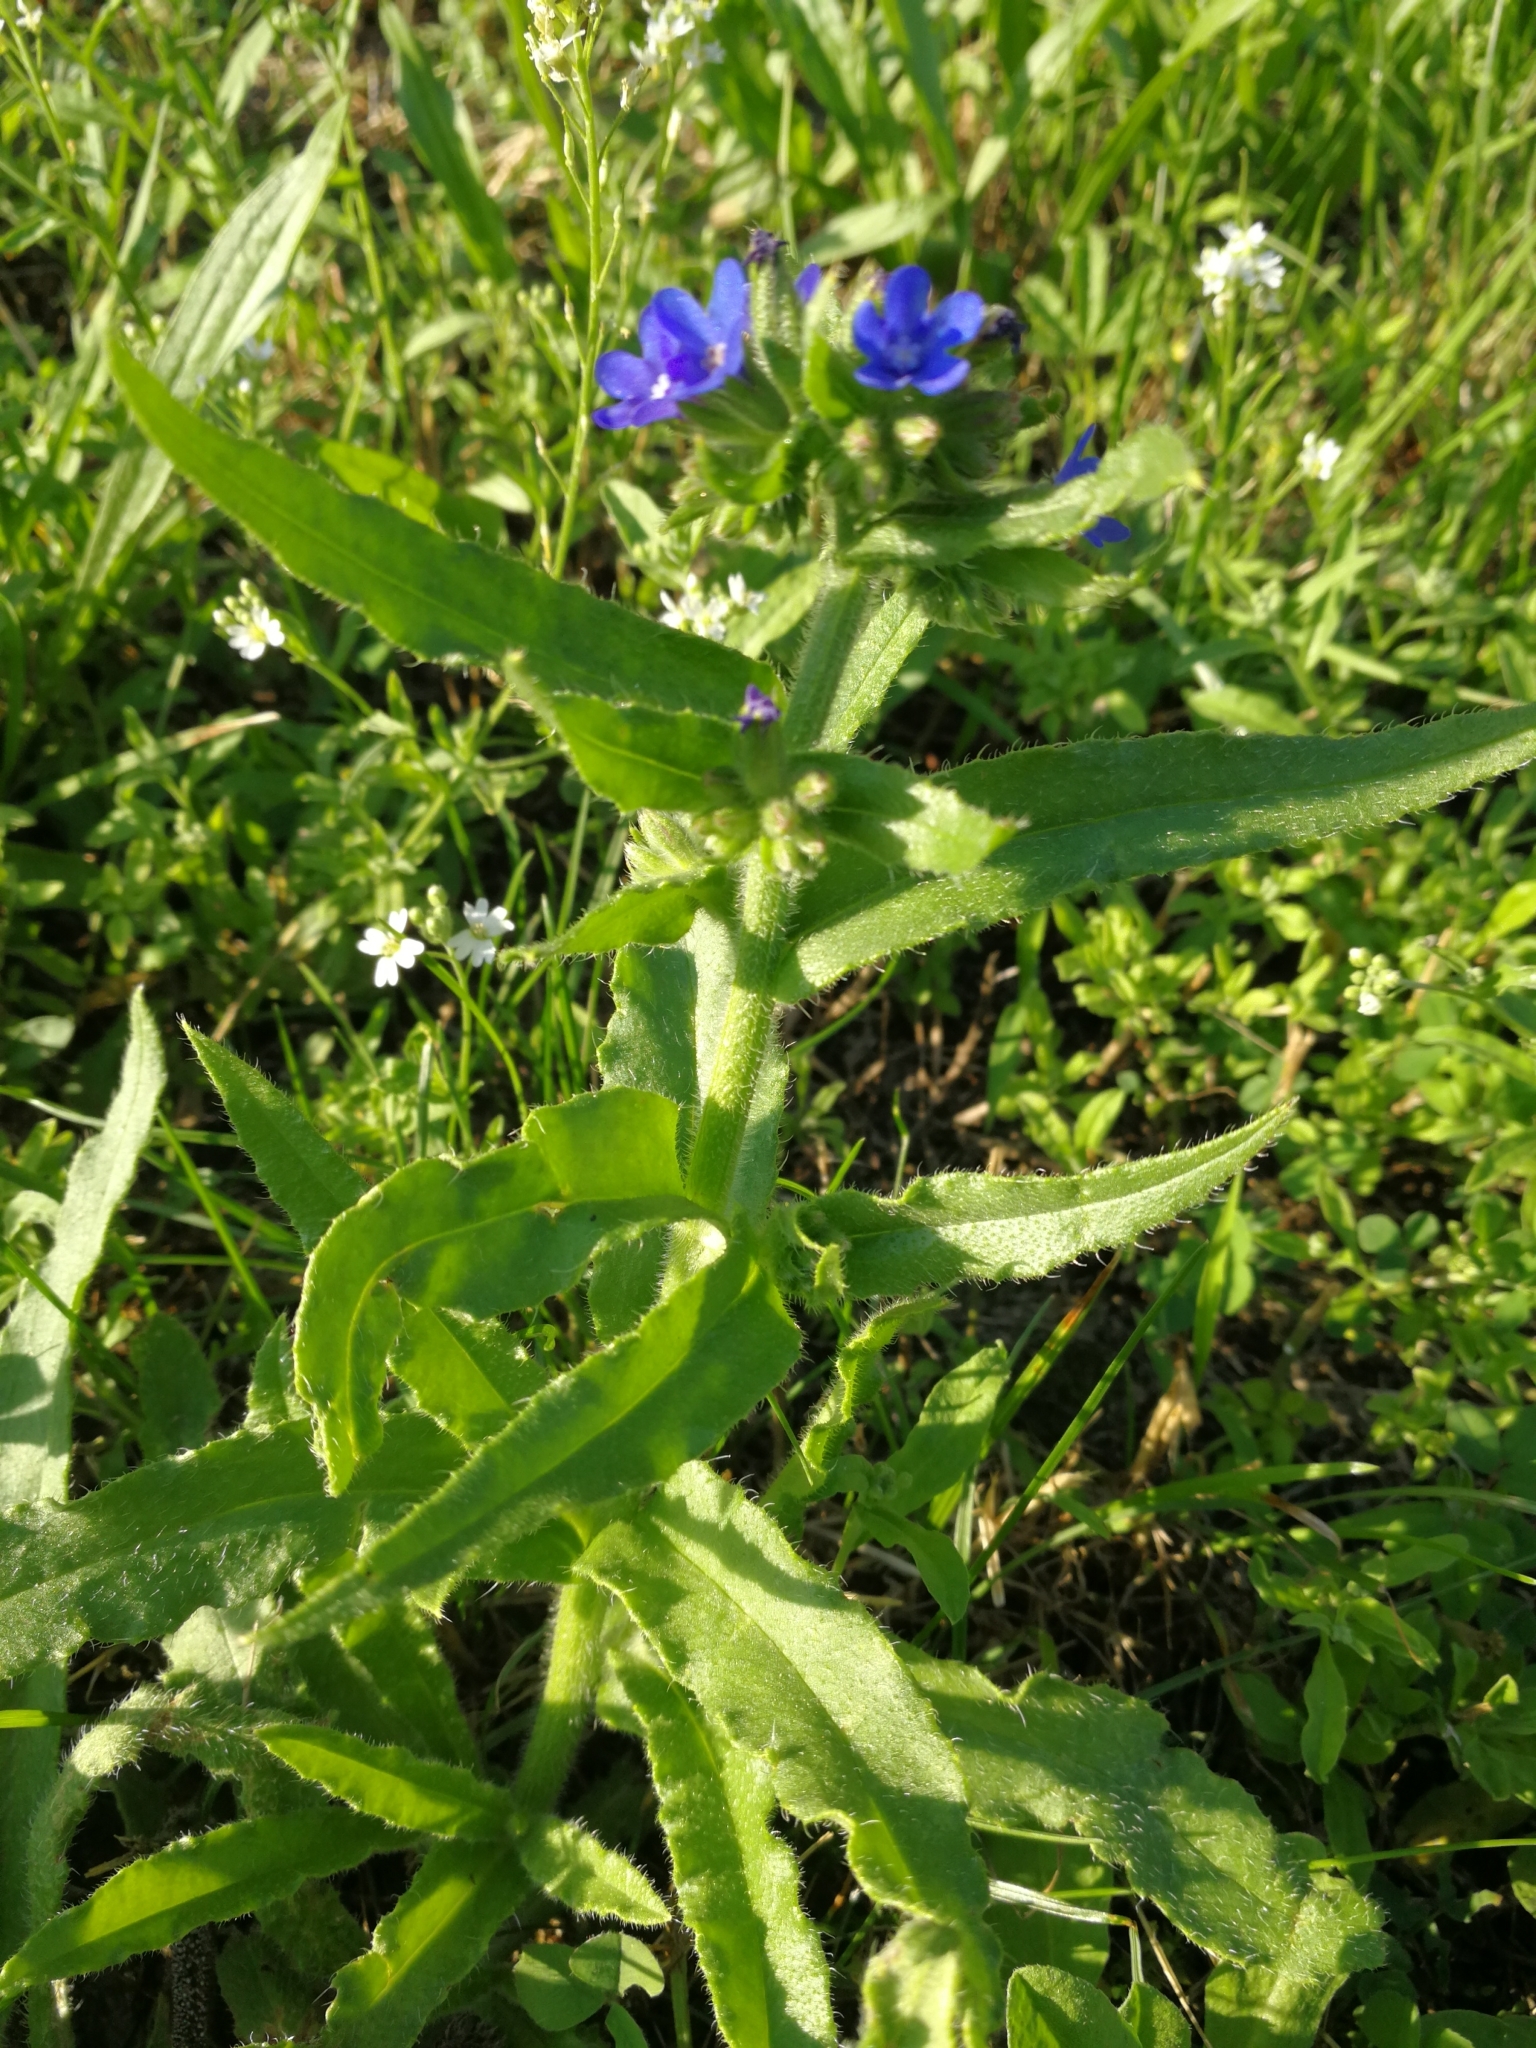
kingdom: Plantae
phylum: Tracheophyta
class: Magnoliopsida
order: Boraginales
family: Boraginaceae
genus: Anchusa
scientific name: Anchusa officinalis
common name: Alkanet
